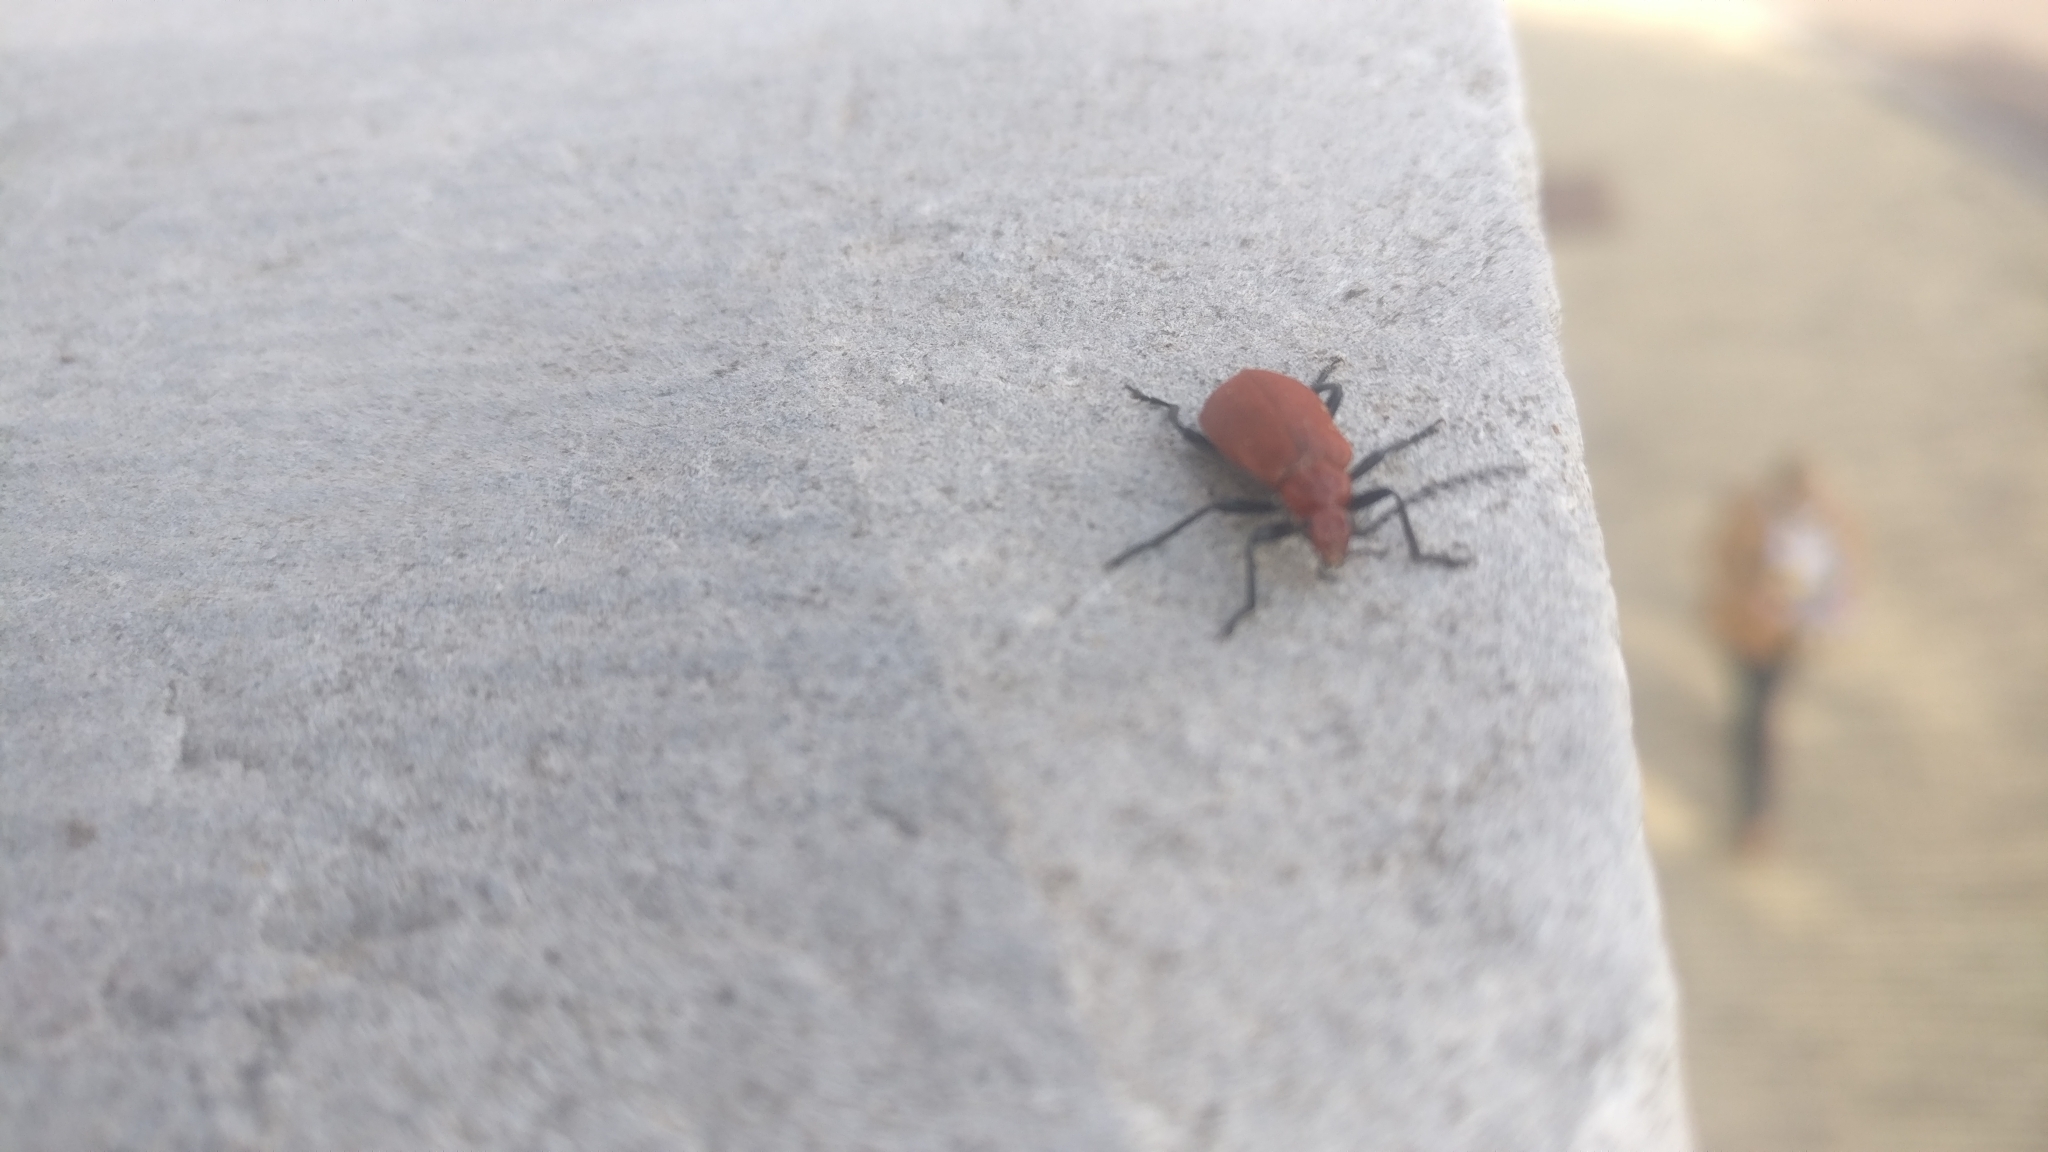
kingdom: Animalia
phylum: Arthropoda
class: Insecta
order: Coleoptera
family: Pyrochroidae
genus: Pyrochroa
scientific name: Pyrochroa serraticornis
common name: Red-headed cardinal beetle
